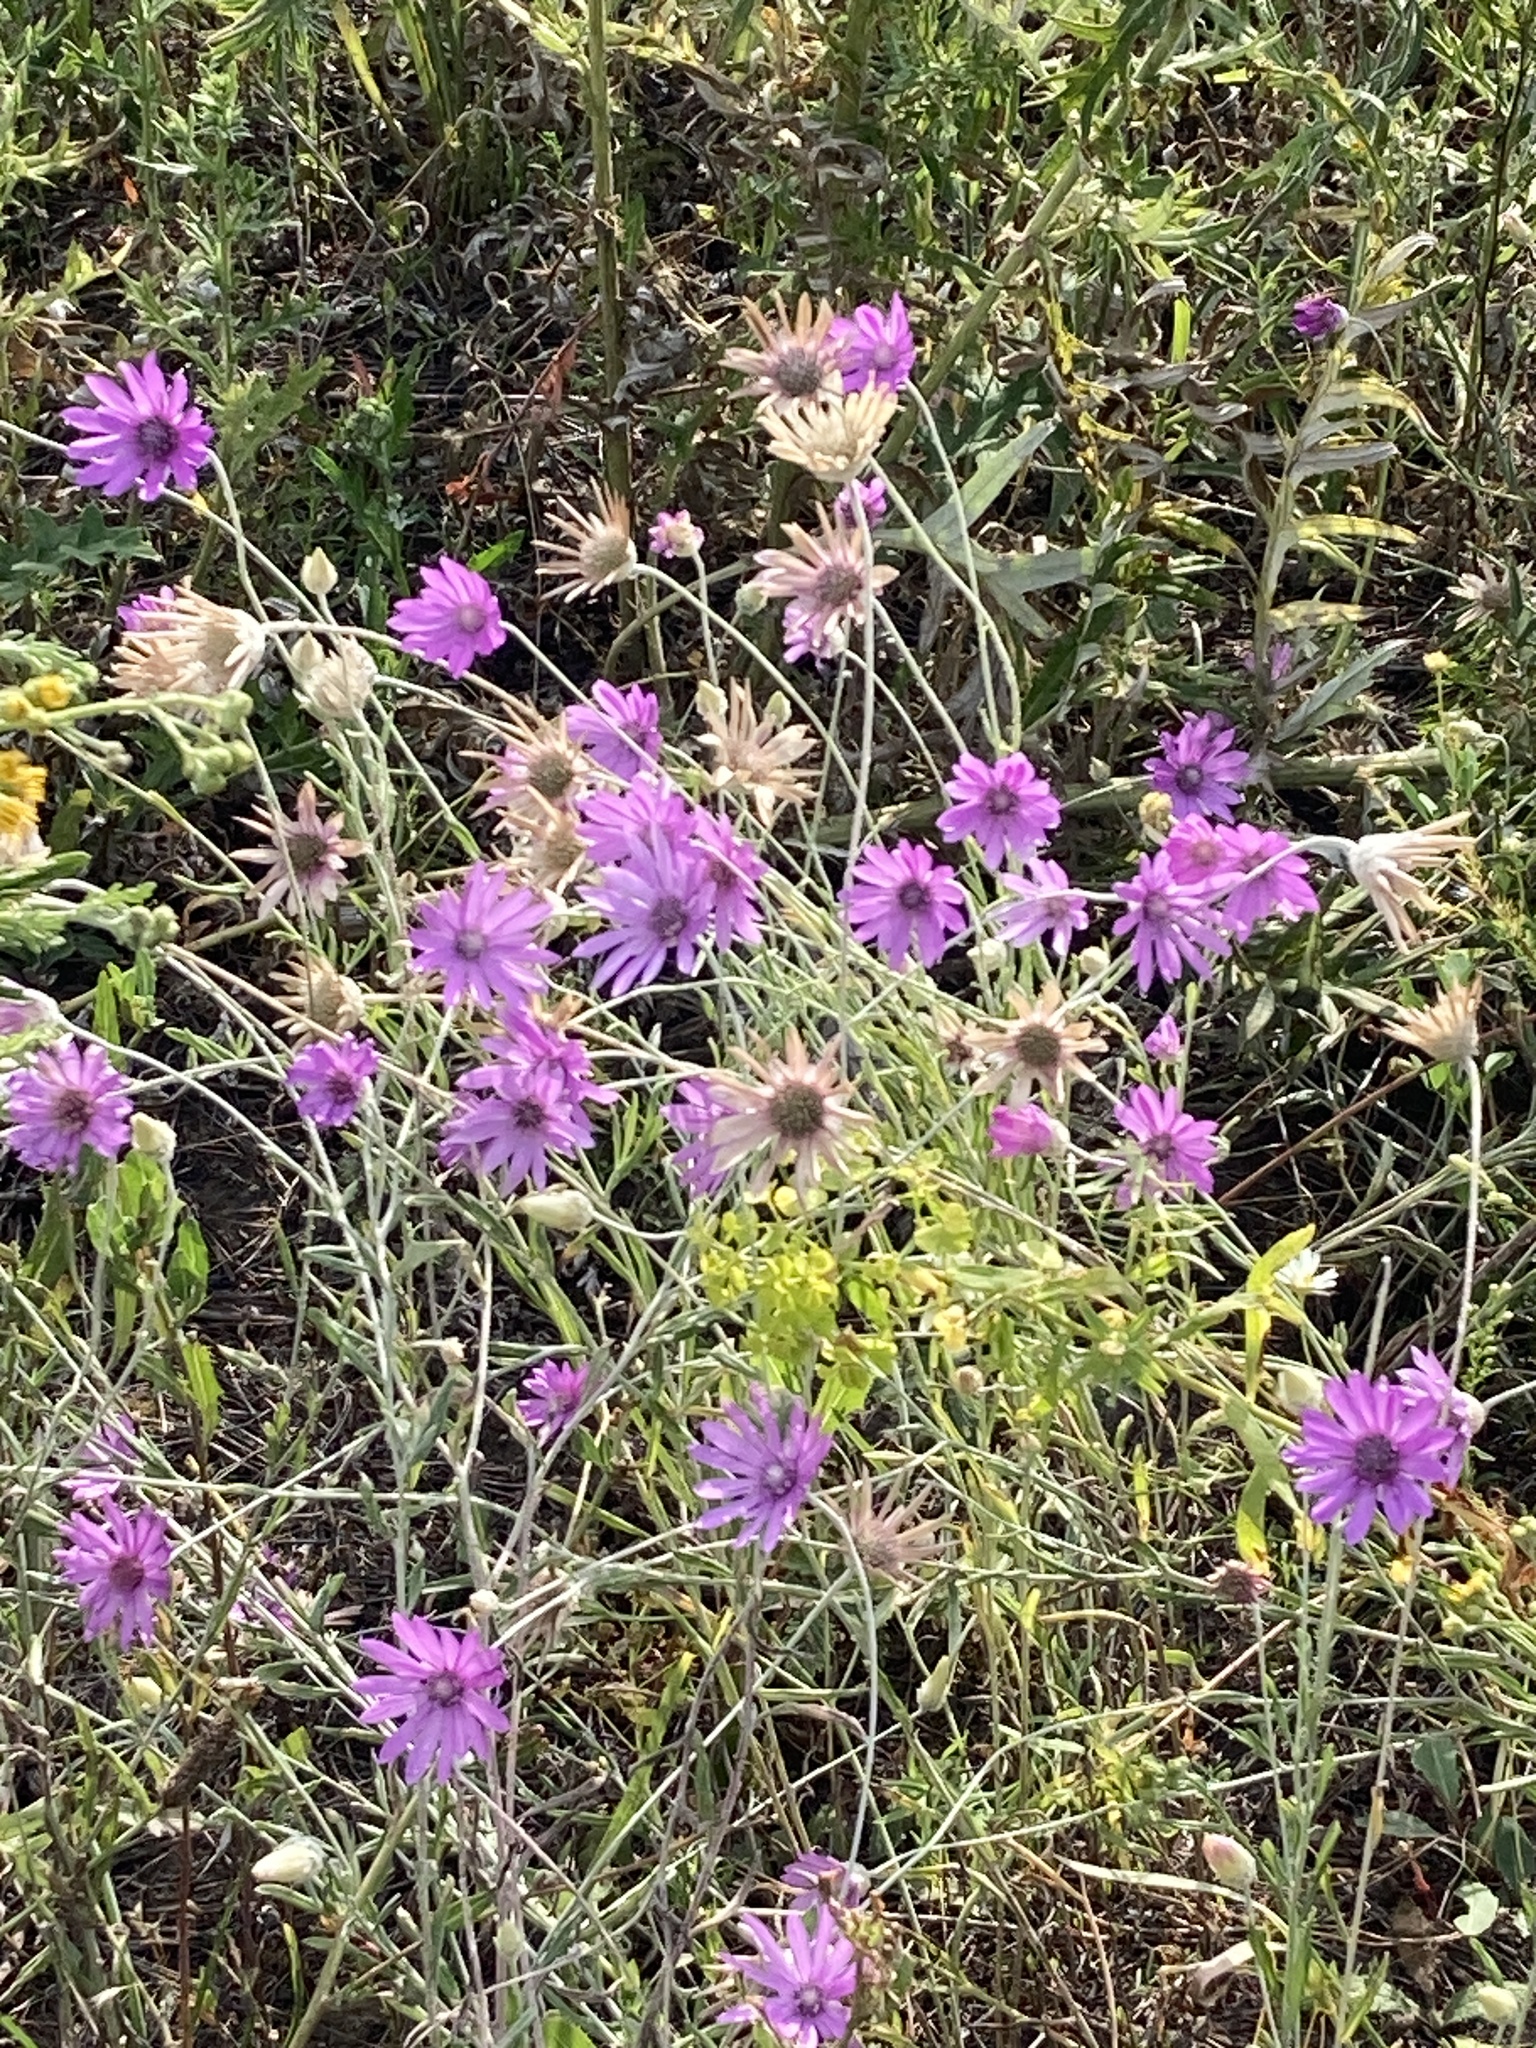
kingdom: Plantae
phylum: Tracheophyta
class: Magnoliopsida
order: Asterales
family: Asteraceae
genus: Xeranthemum
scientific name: Xeranthemum annuum
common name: Immortelle
